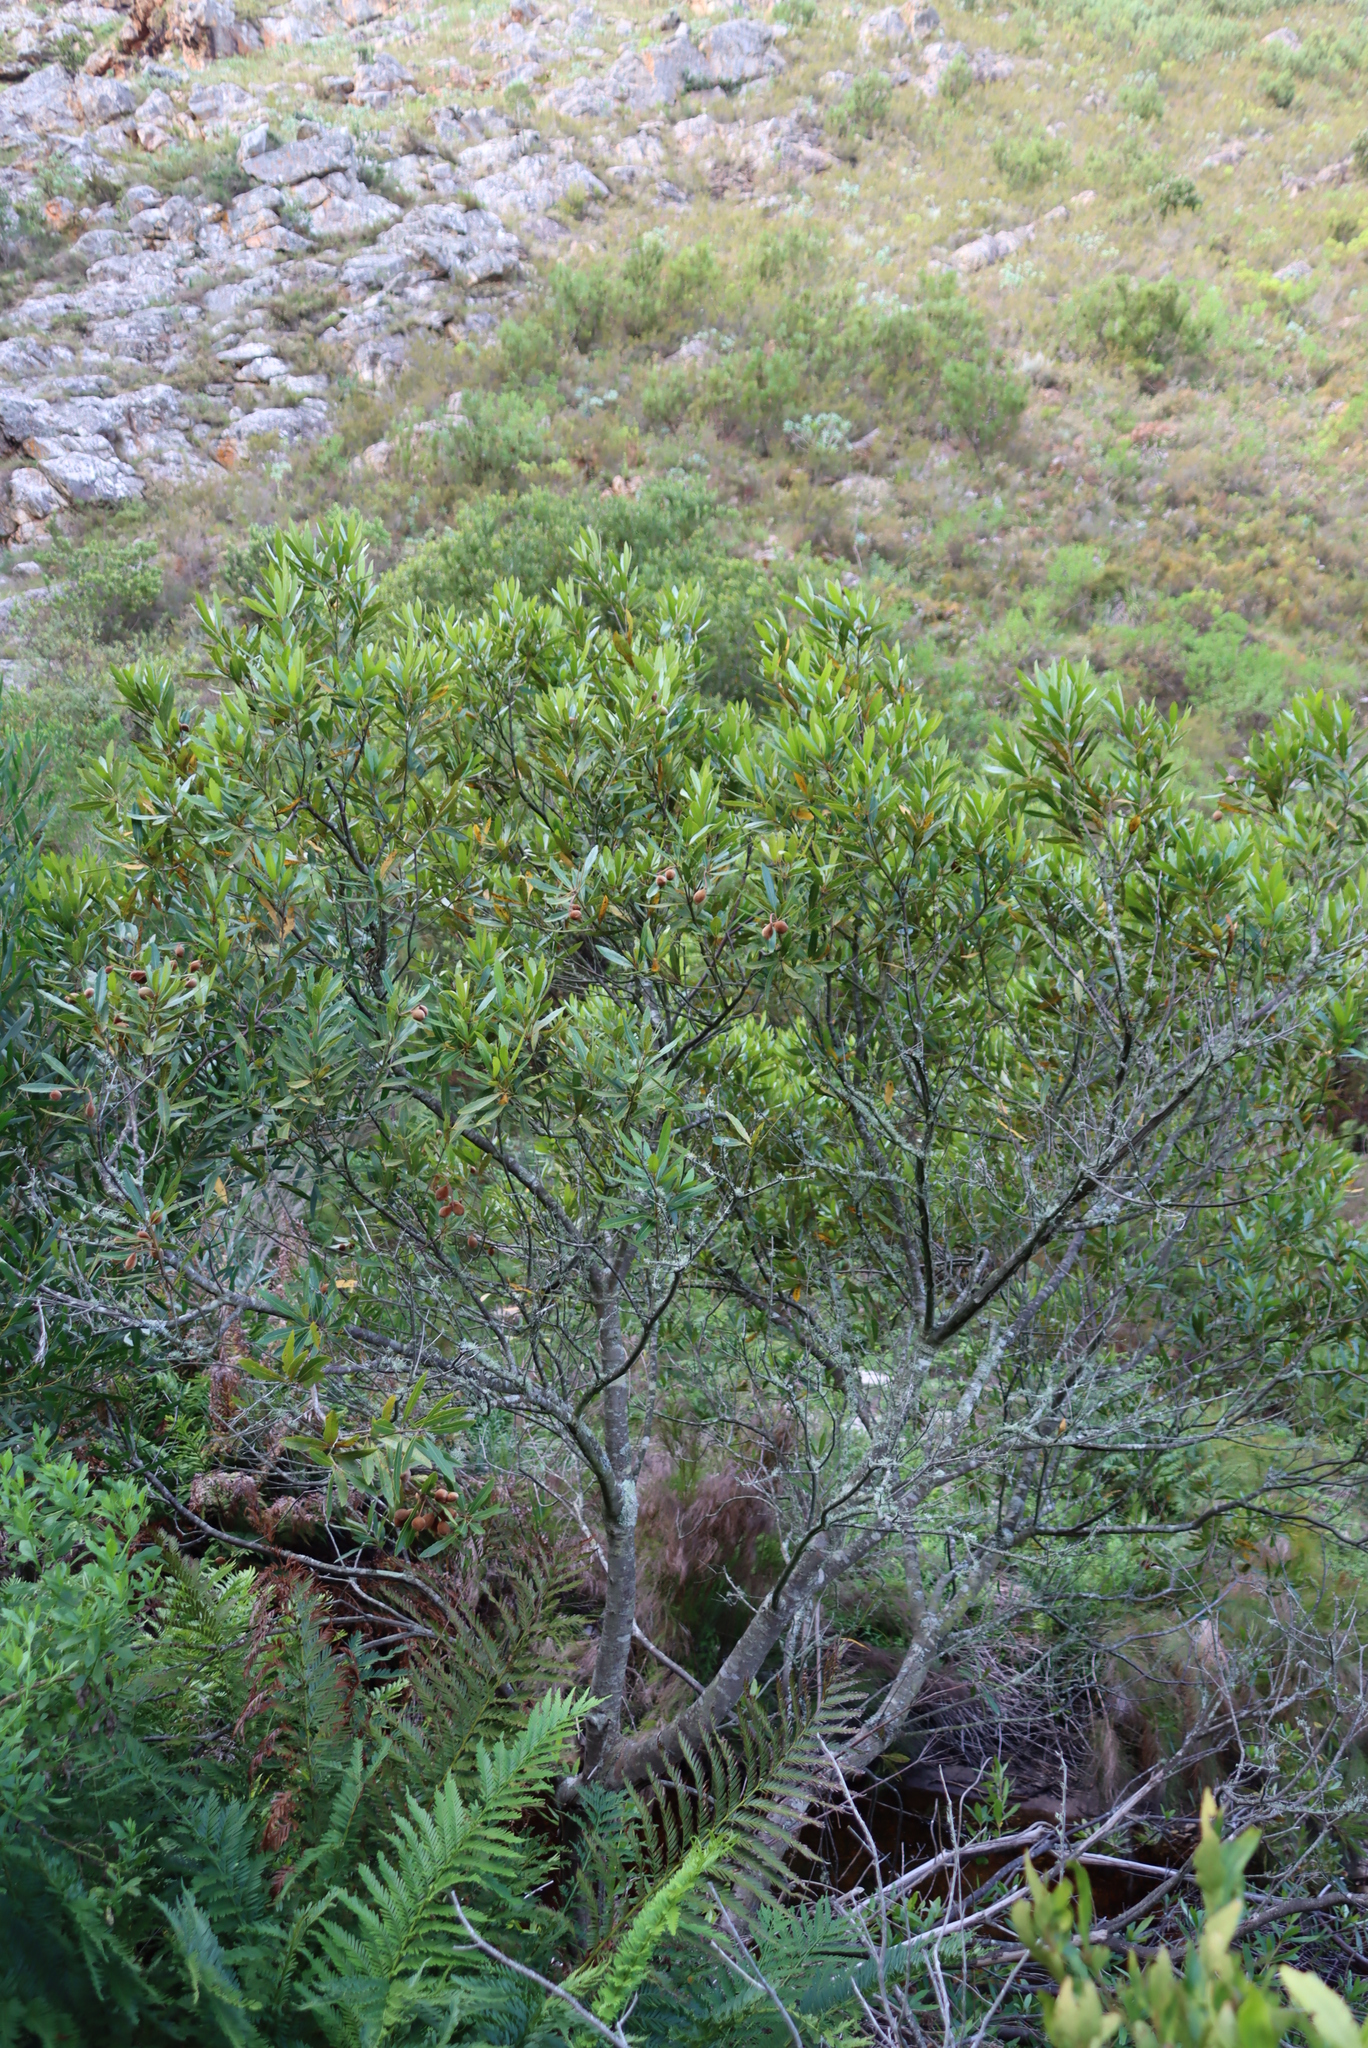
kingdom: Plantae
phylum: Tracheophyta
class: Magnoliopsida
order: Proteales
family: Proteaceae
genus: Brabejum
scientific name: Brabejum stellatifolium
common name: Wild almond
